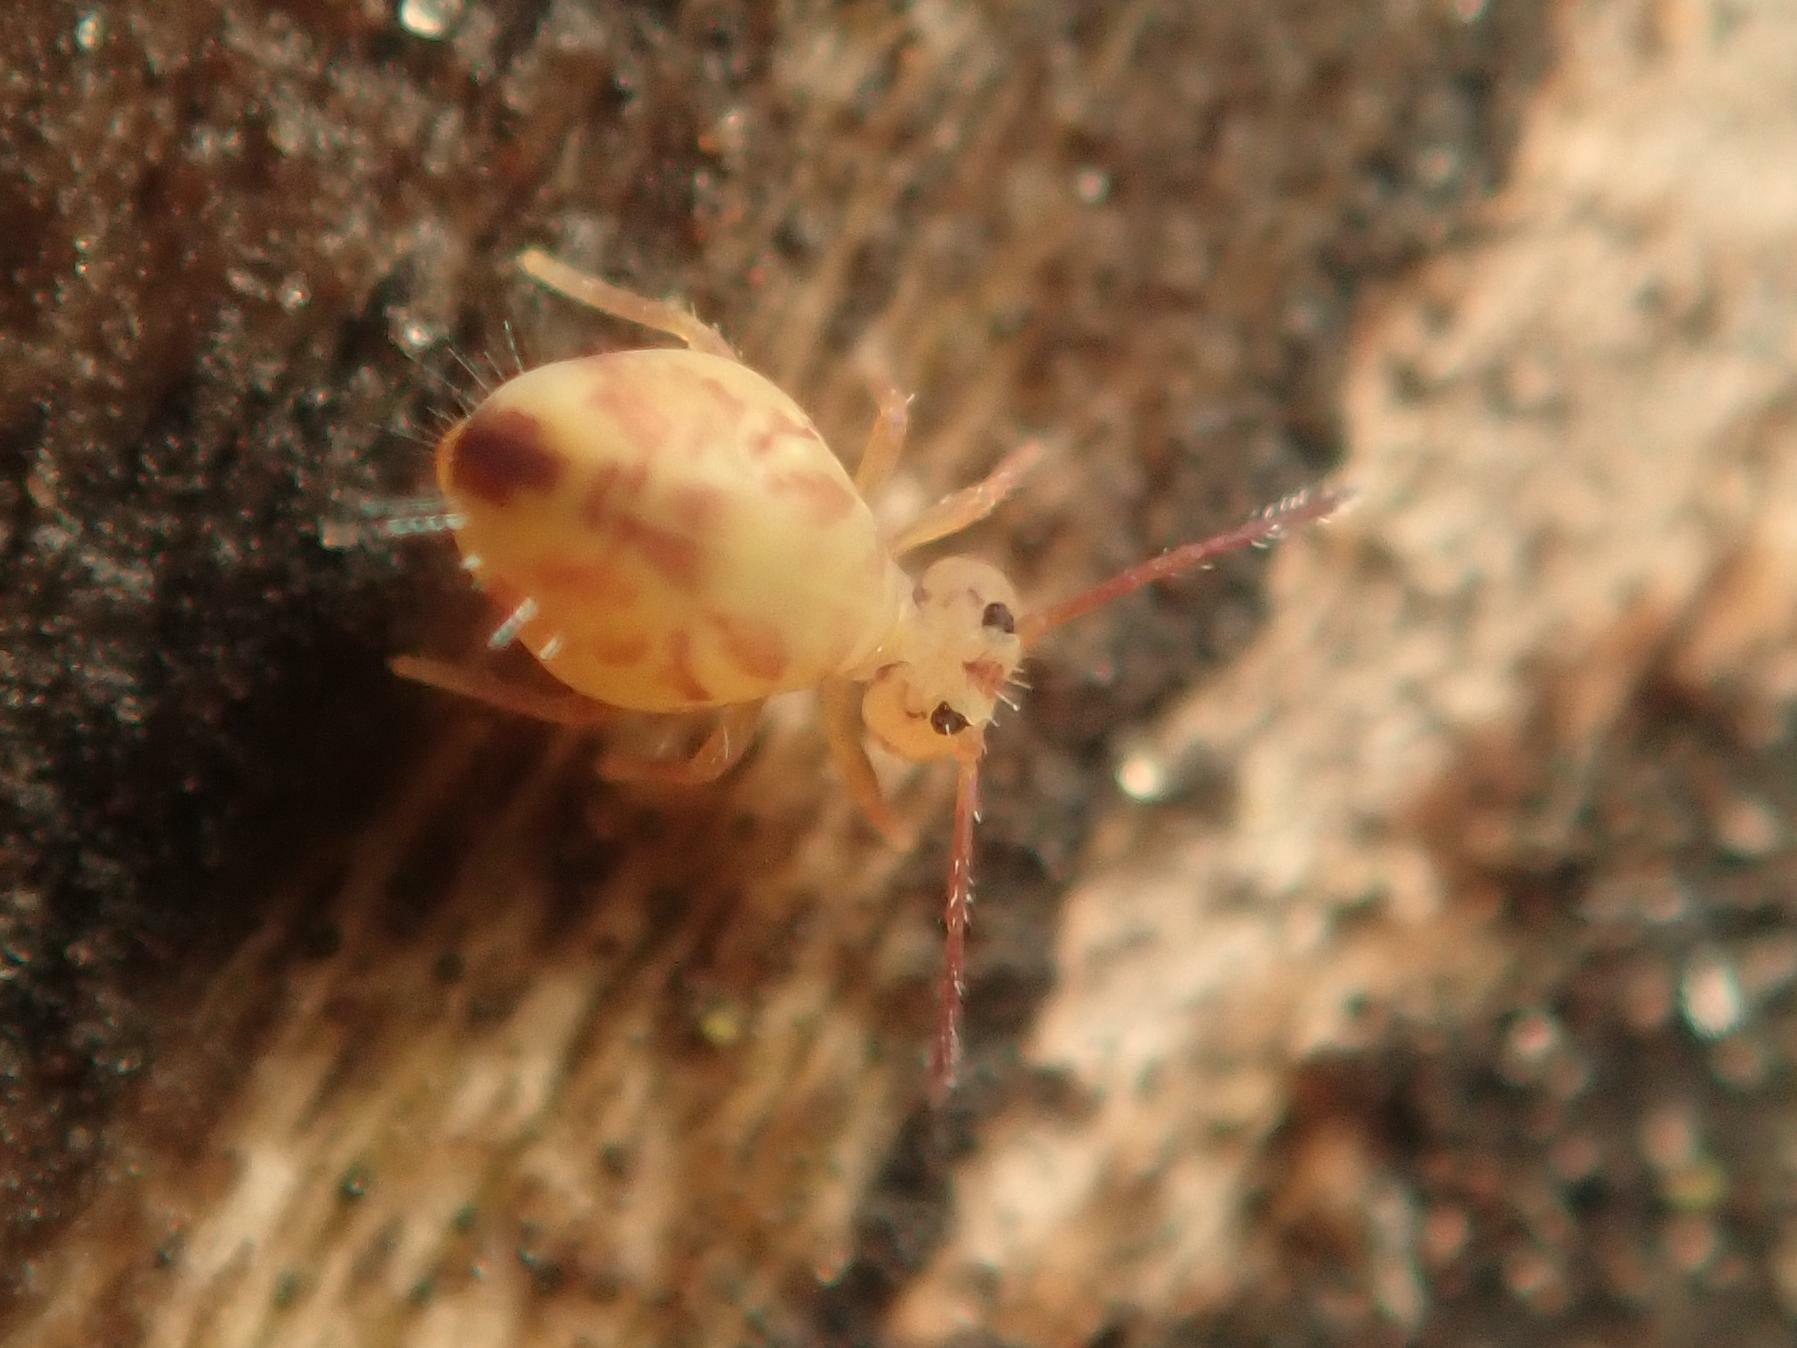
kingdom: Animalia
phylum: Arthropoda
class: Collembola
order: Symphypleona
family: Dicyrtomidae
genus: Dicyrtomina
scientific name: Dicyrtomina ornata
